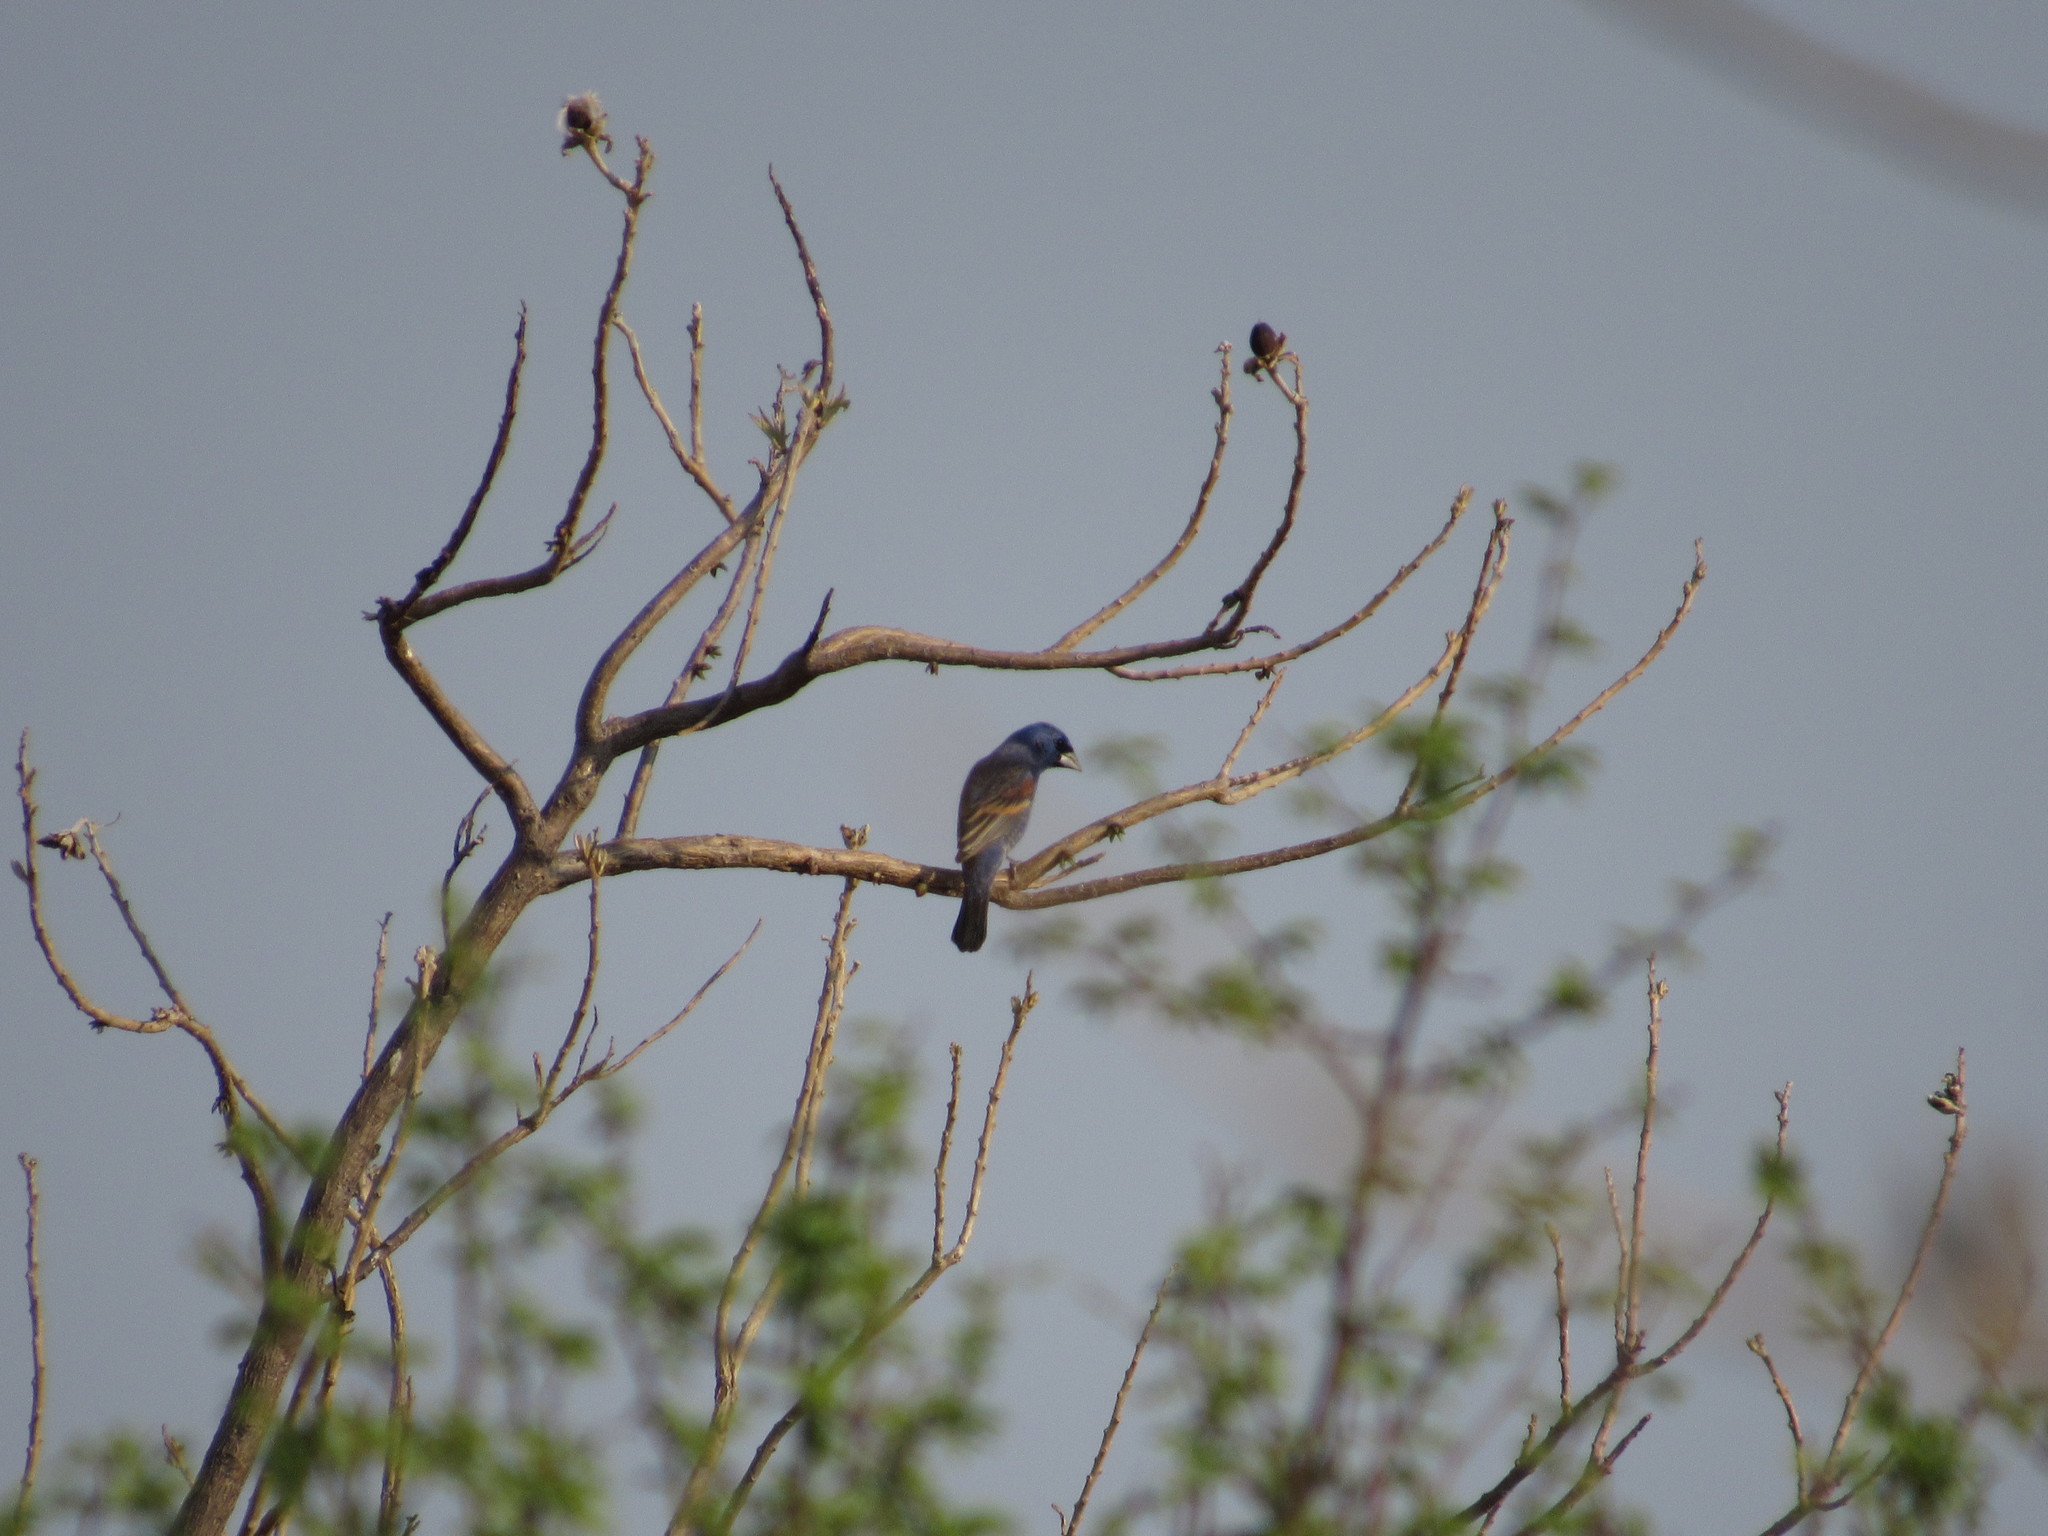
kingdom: Animalia
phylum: Chordata
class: Aves
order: Passeriformes
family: Cardinalidae
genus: Passerina
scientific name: Passerina caerulea
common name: Blue grosbeak
